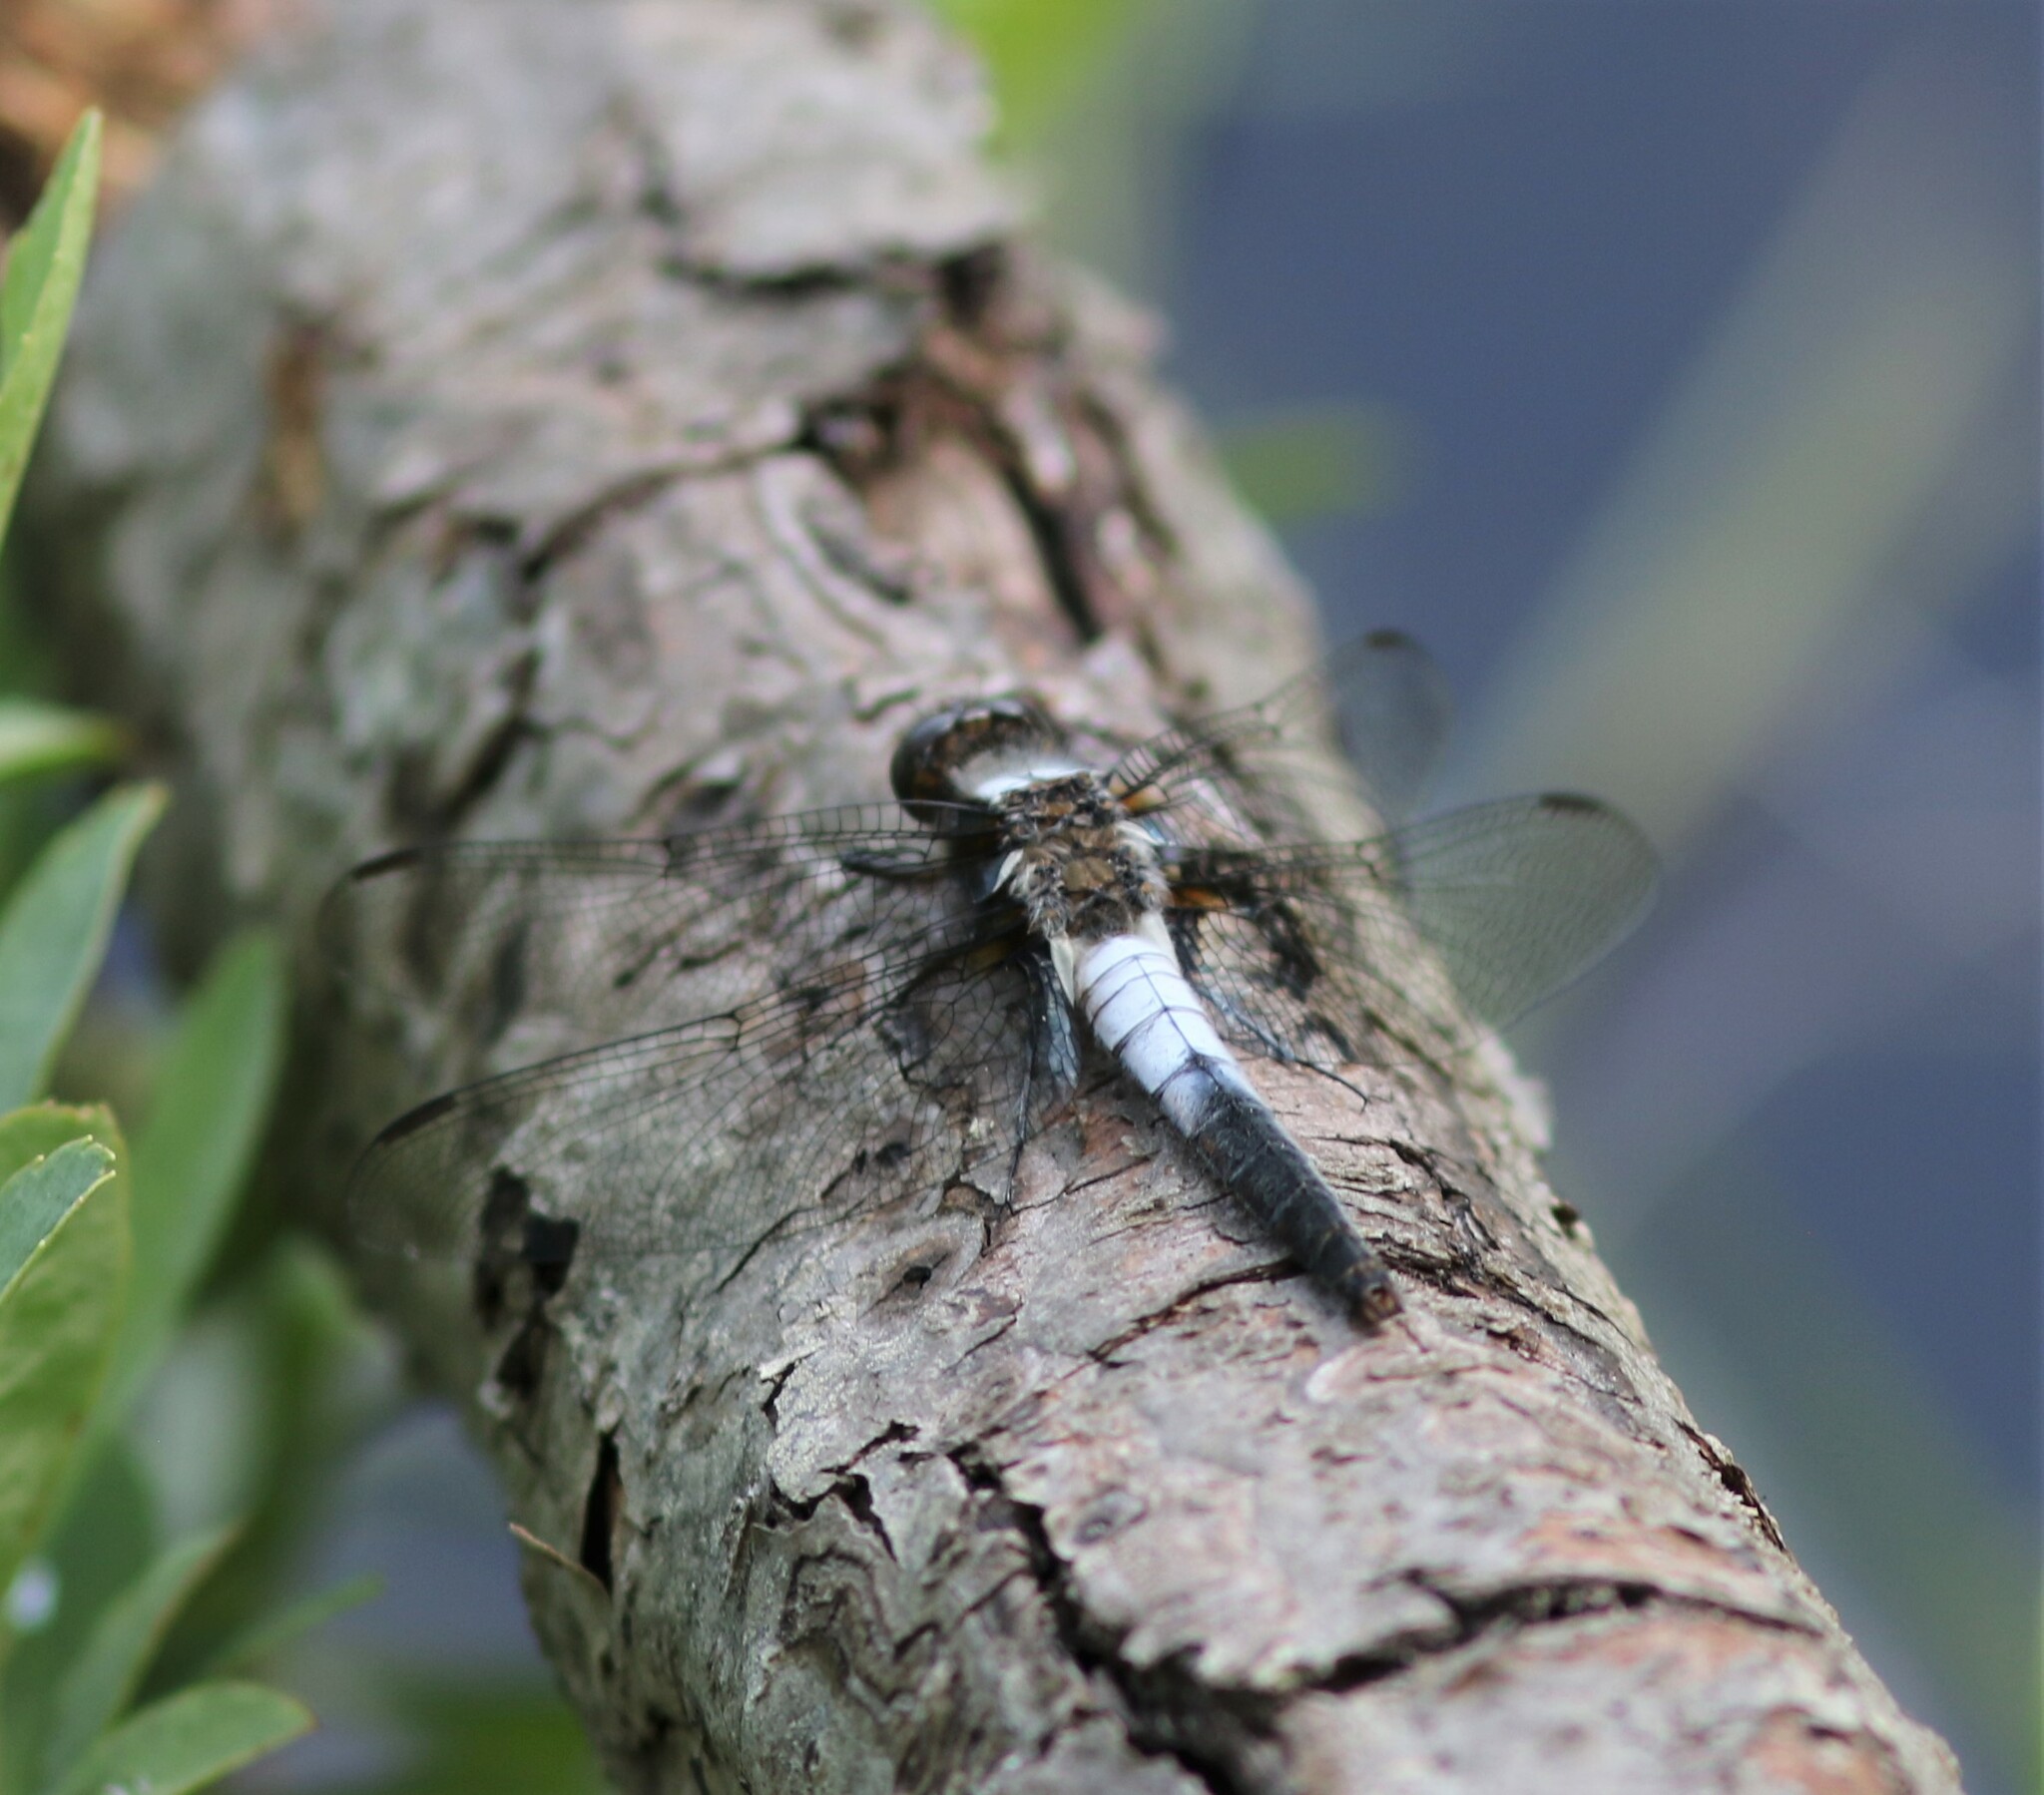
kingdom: Animalia
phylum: Arthropoda
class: Insecta
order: Odonata
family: Libellulidae
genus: Ladona
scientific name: Ladona julia
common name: Chalk-fronted corporal
